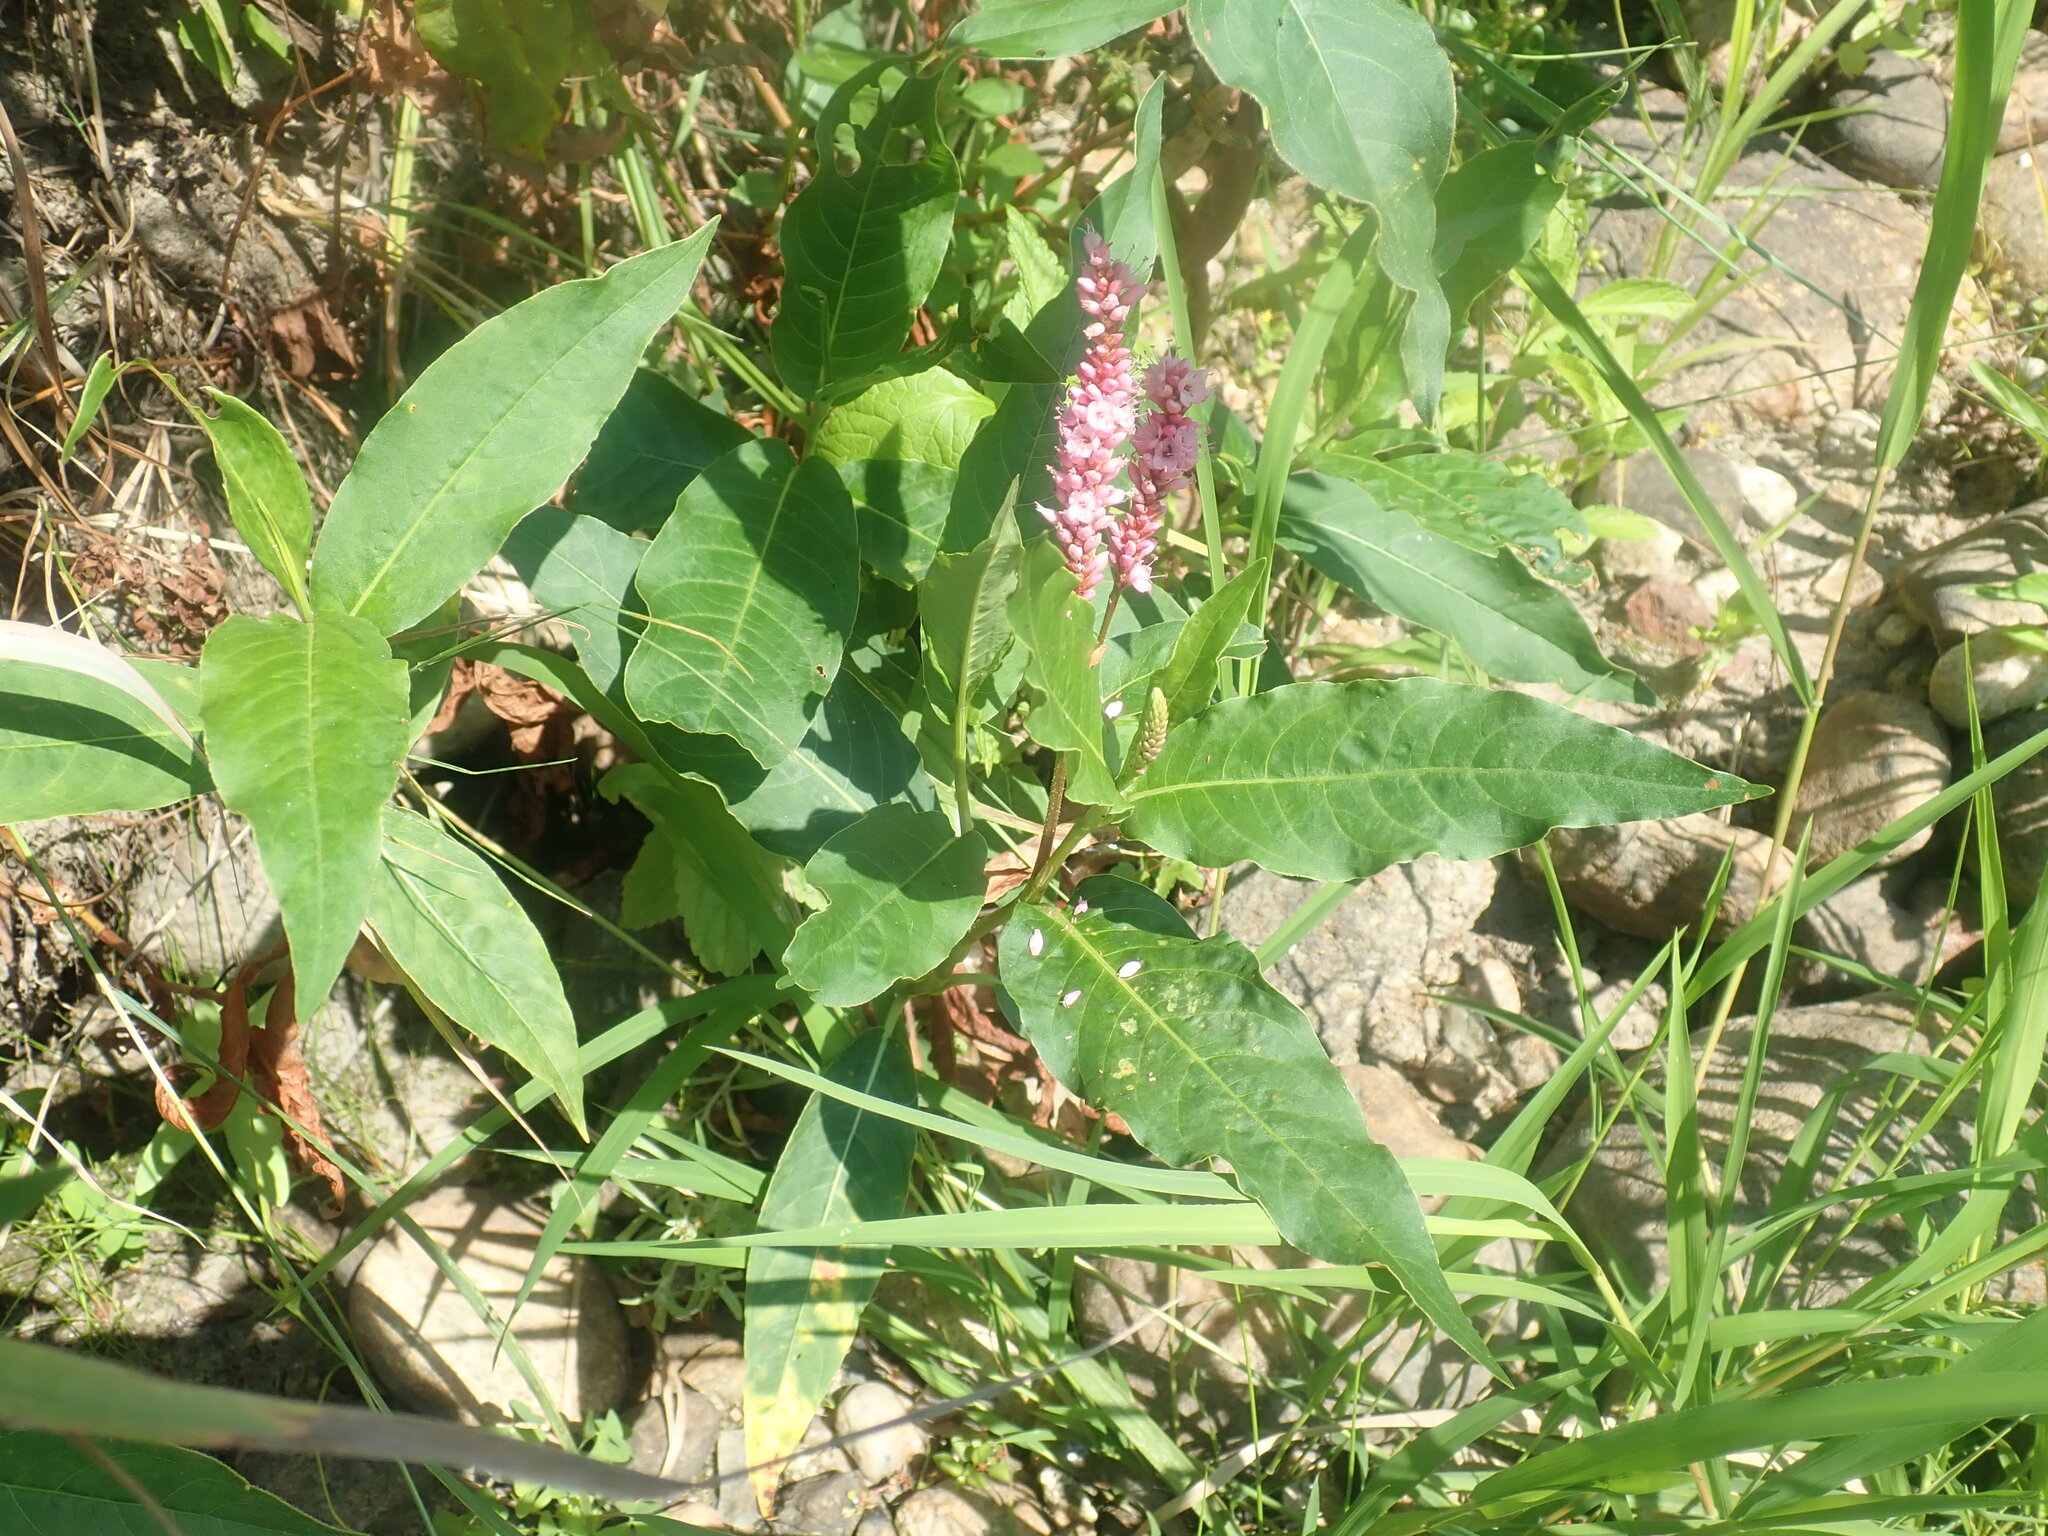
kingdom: Plantae
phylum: Tracheophyta
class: Magnoliopsida
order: Caryophyllales
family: Polygonaceae
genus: Persicaria
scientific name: Persicaria amphibia
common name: Amphibious bistort
